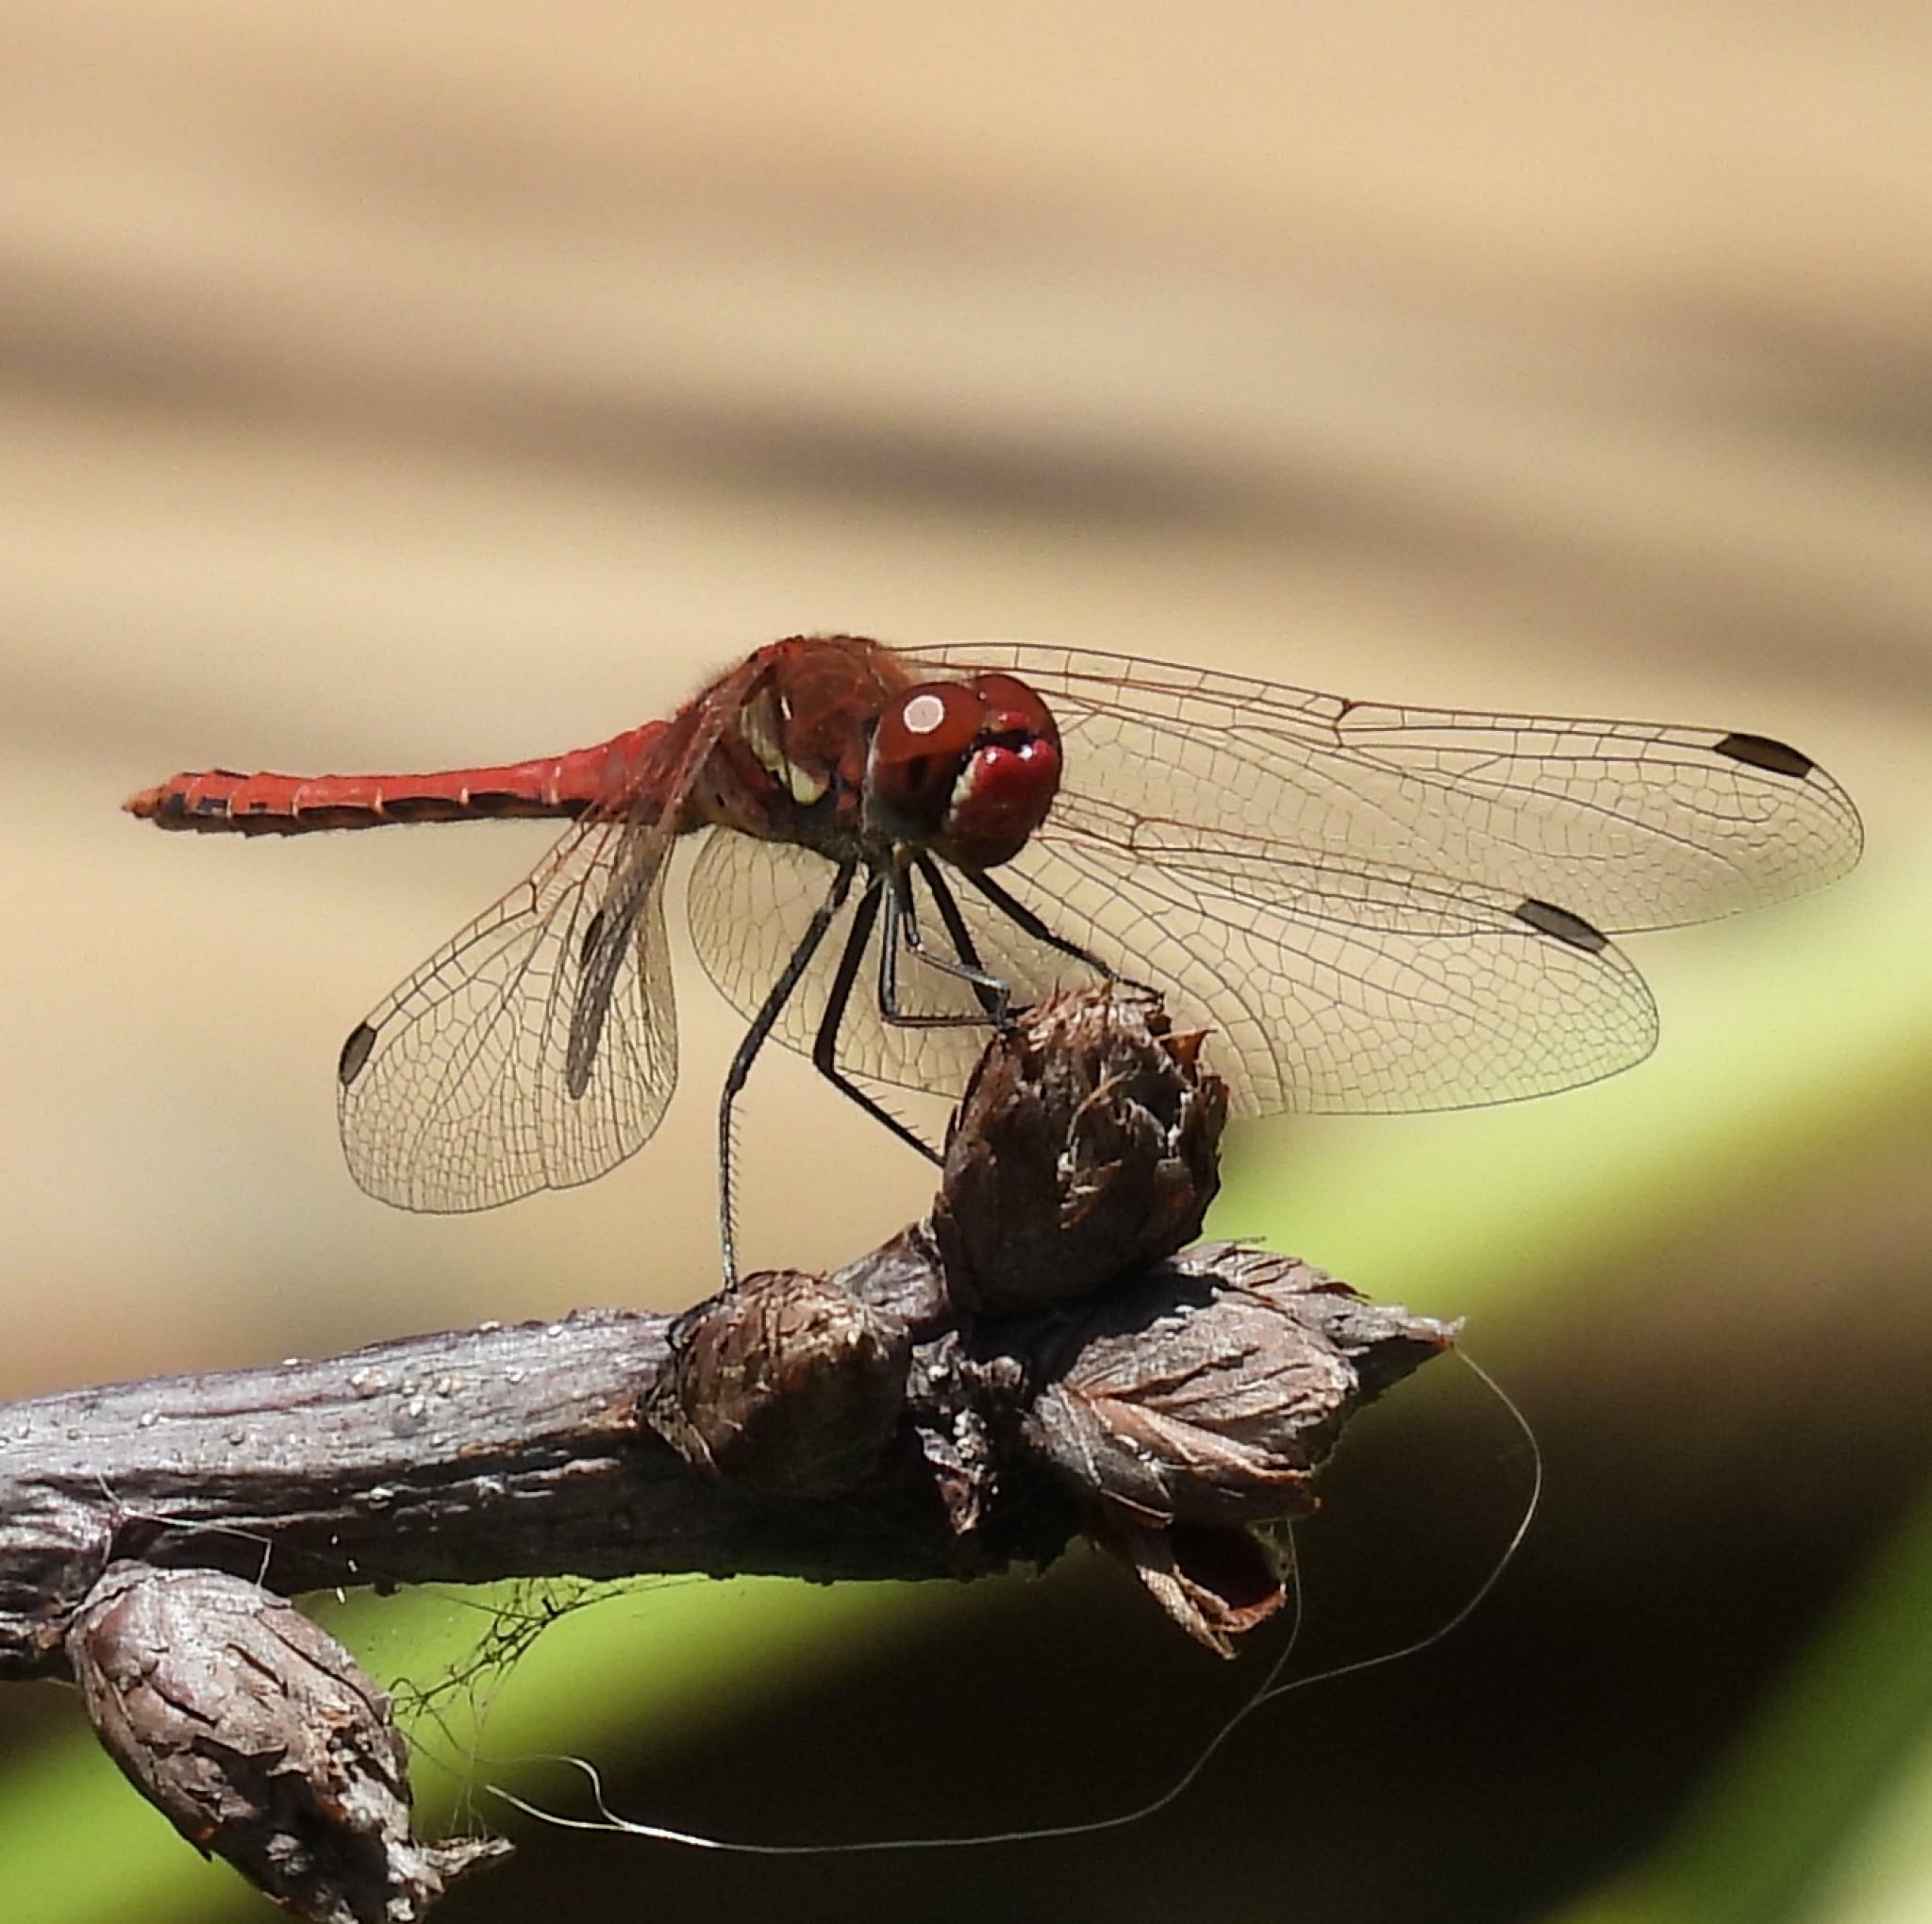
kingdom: Animalia
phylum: Arthropoda
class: Insecta
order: Odonata
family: Libellulidae
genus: Sympetrum
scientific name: Sympetrum fonscolombii
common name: Red-veined darter
